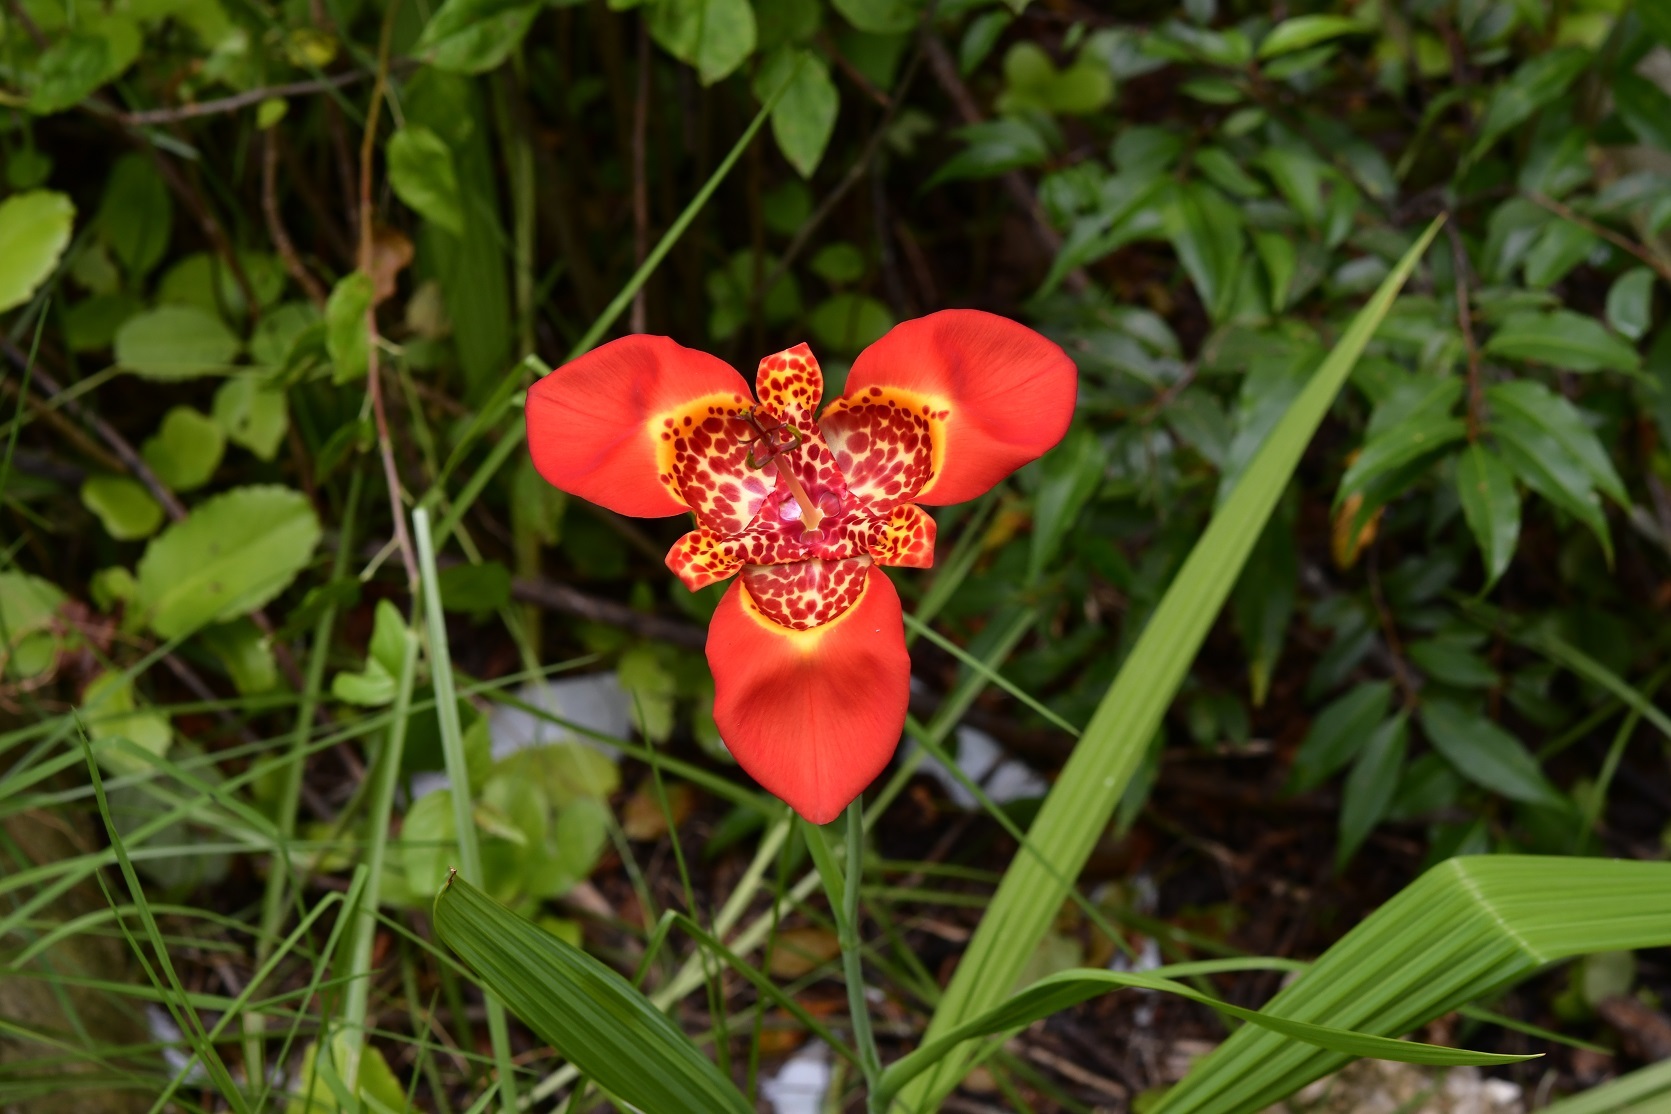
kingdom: Plantae
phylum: Tracheophyta
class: Liliopsida
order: Asparagales
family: Iridaceae
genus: Tigridia
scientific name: Tigridia pavonia
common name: Peacock-flower
